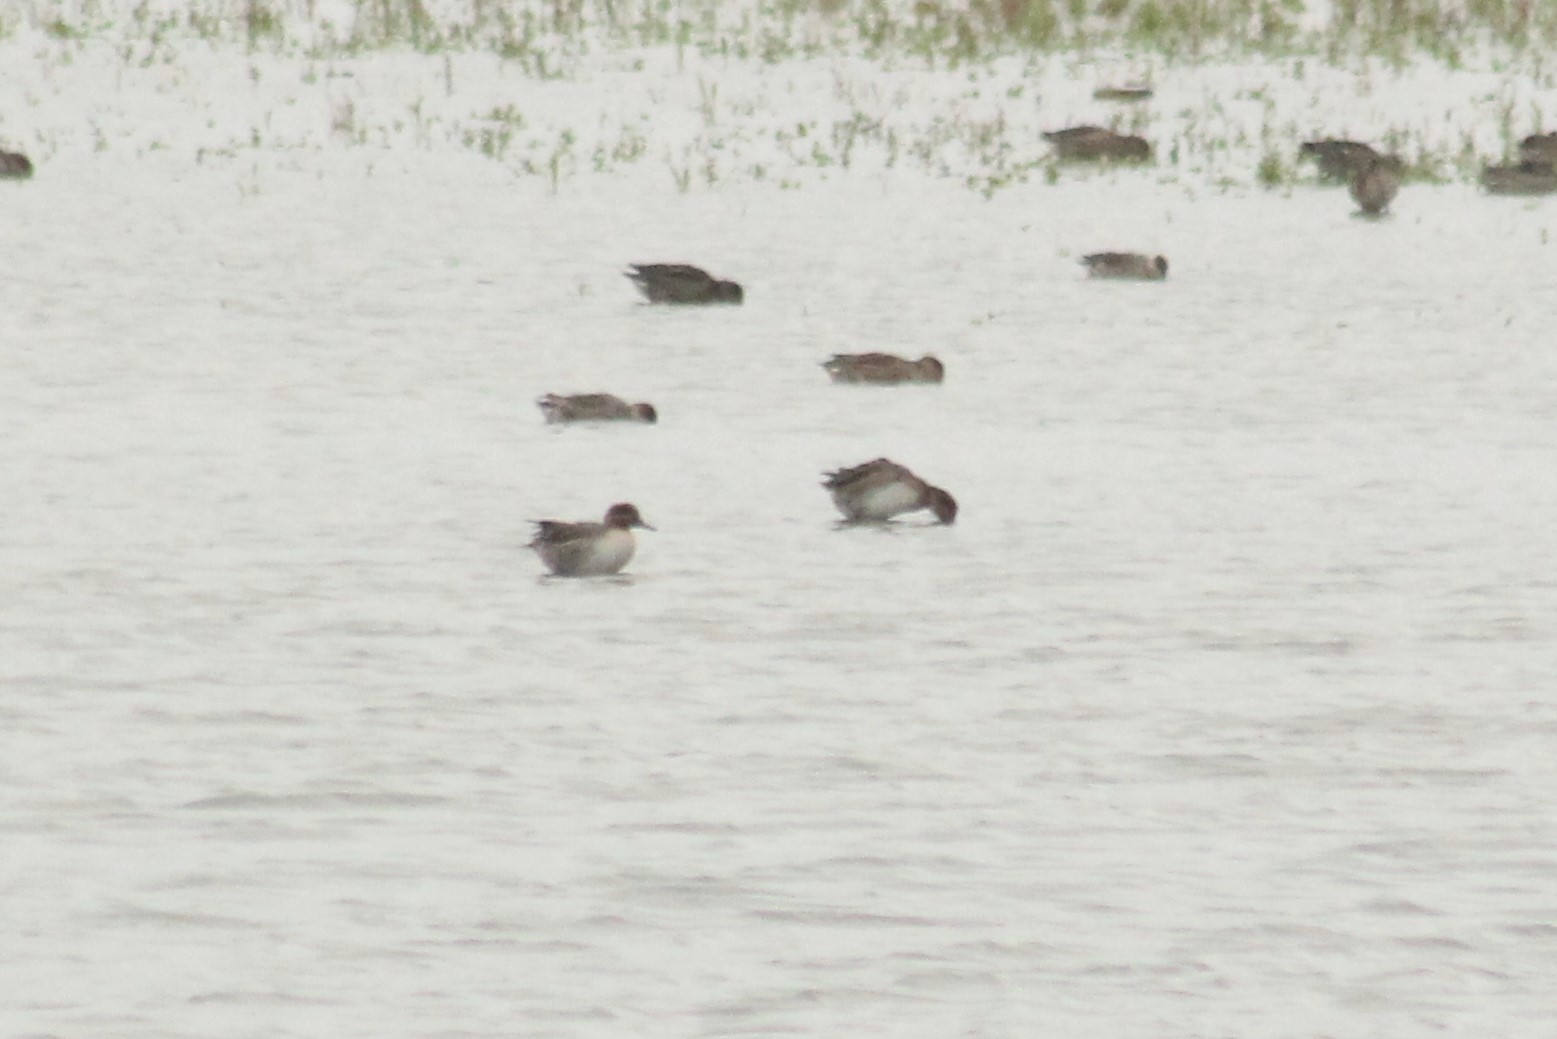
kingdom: Animalia
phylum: Chordata
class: Aves
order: Anseriformes
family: Anatidae
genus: Anas
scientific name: Anas crecca
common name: Eurasian teal
